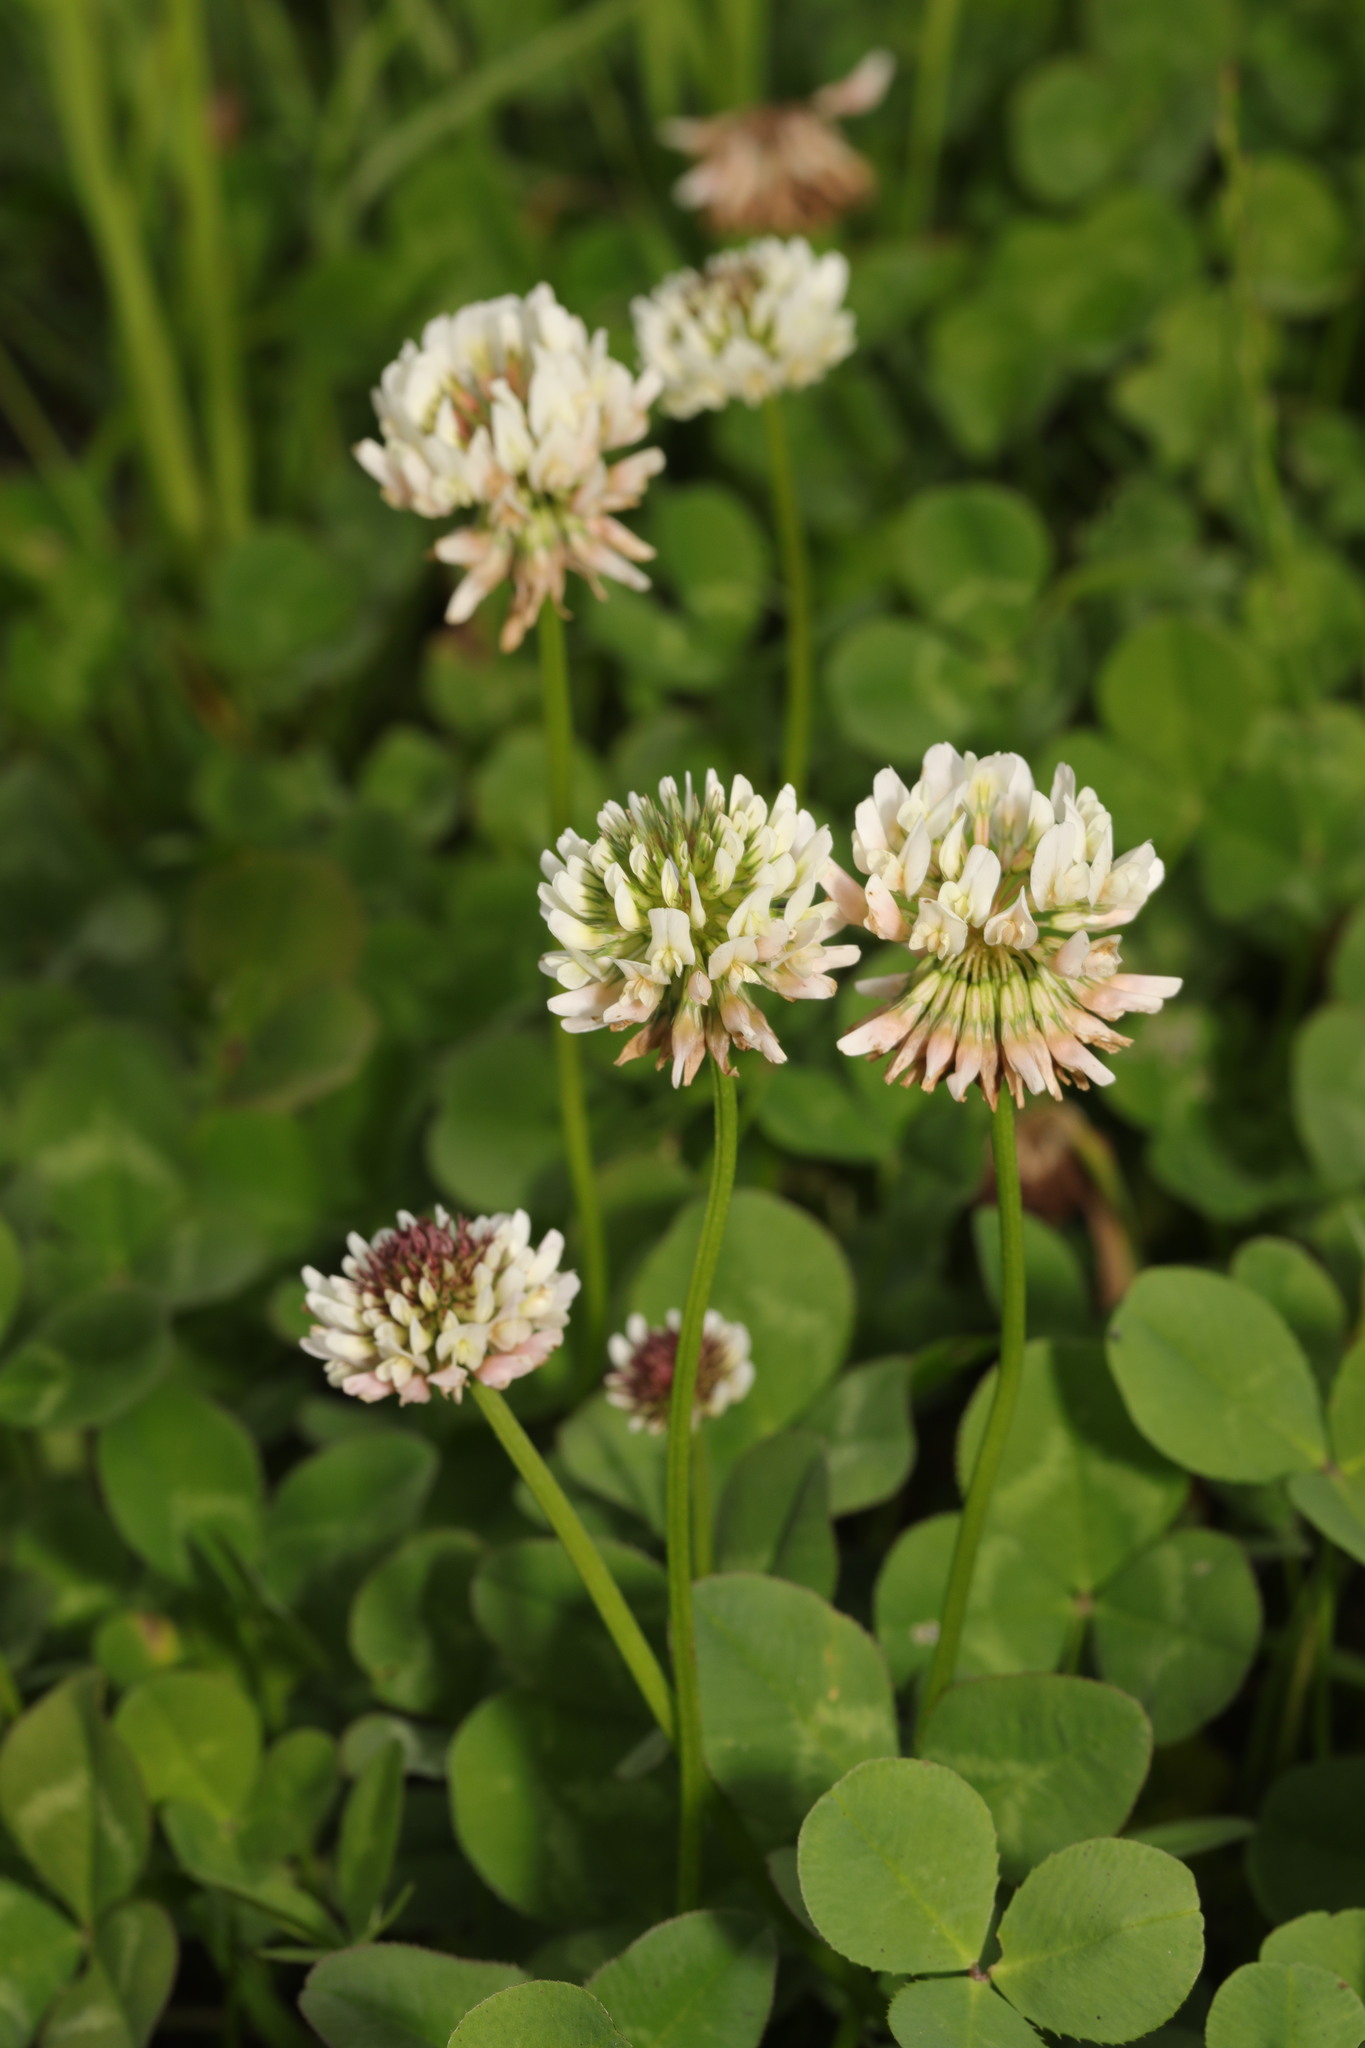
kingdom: Plantae
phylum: Tracheophyta
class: Magnoliopsida
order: Fabales
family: Fabaceae
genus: Trifolium
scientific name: Trifolium repens
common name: White clover
